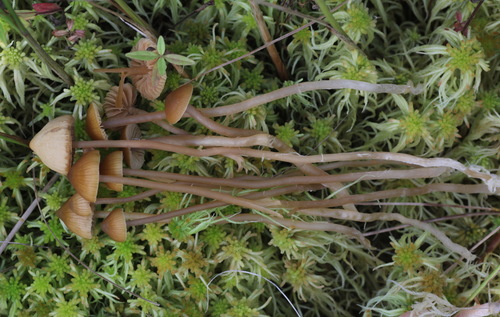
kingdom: Fungi
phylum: Basidiomycota
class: Agaricomycetes
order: Agaricales
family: Hymenogastraceae
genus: Galerina
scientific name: Galerina clavata
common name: Ribbed bell
